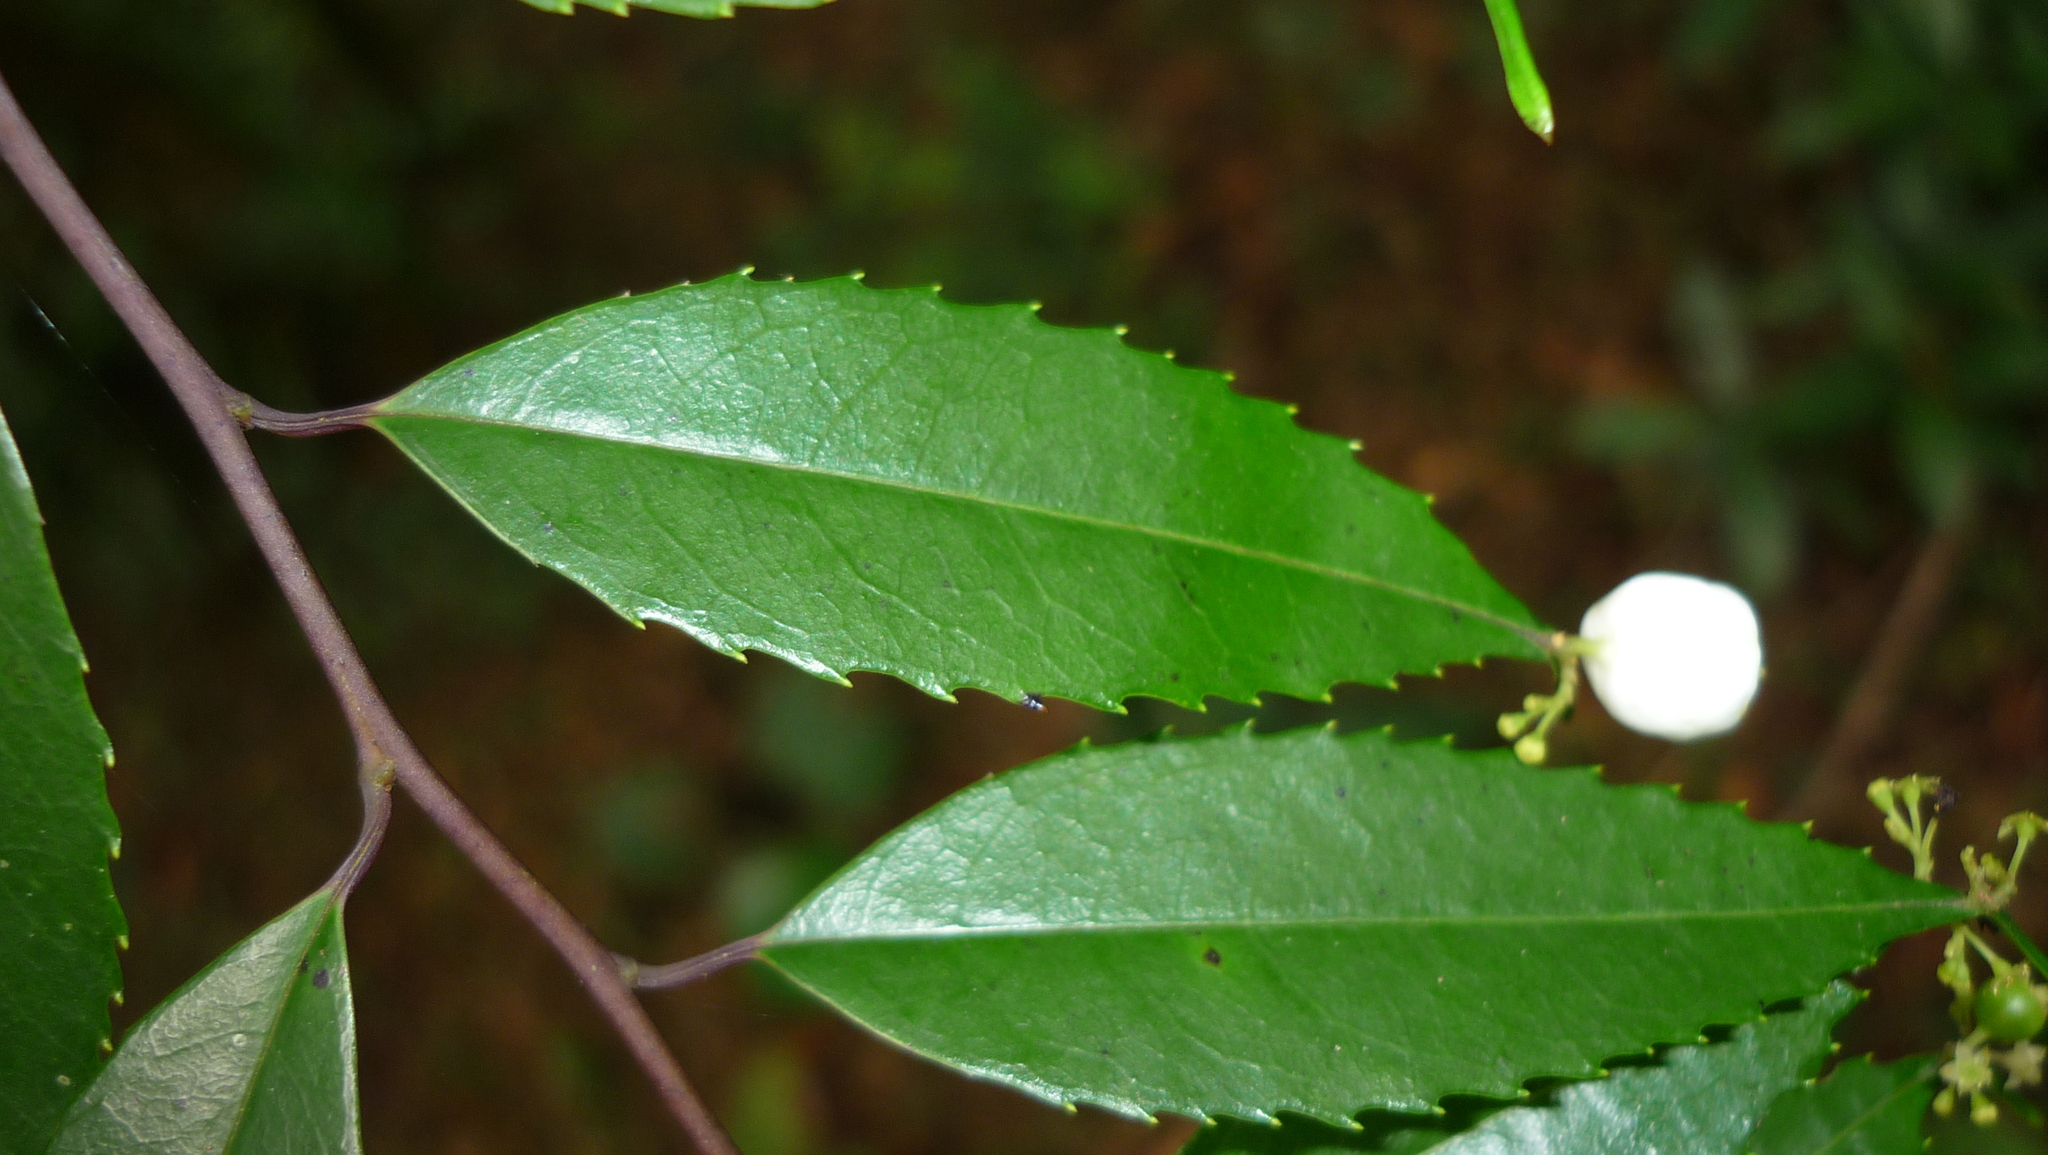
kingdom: Plantae
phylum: Tracheophyta
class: Magnoliopsida
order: Aquifoliales
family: Phyllonomaceae
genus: Phyllonoma
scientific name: Phyllonoma laticuspis
